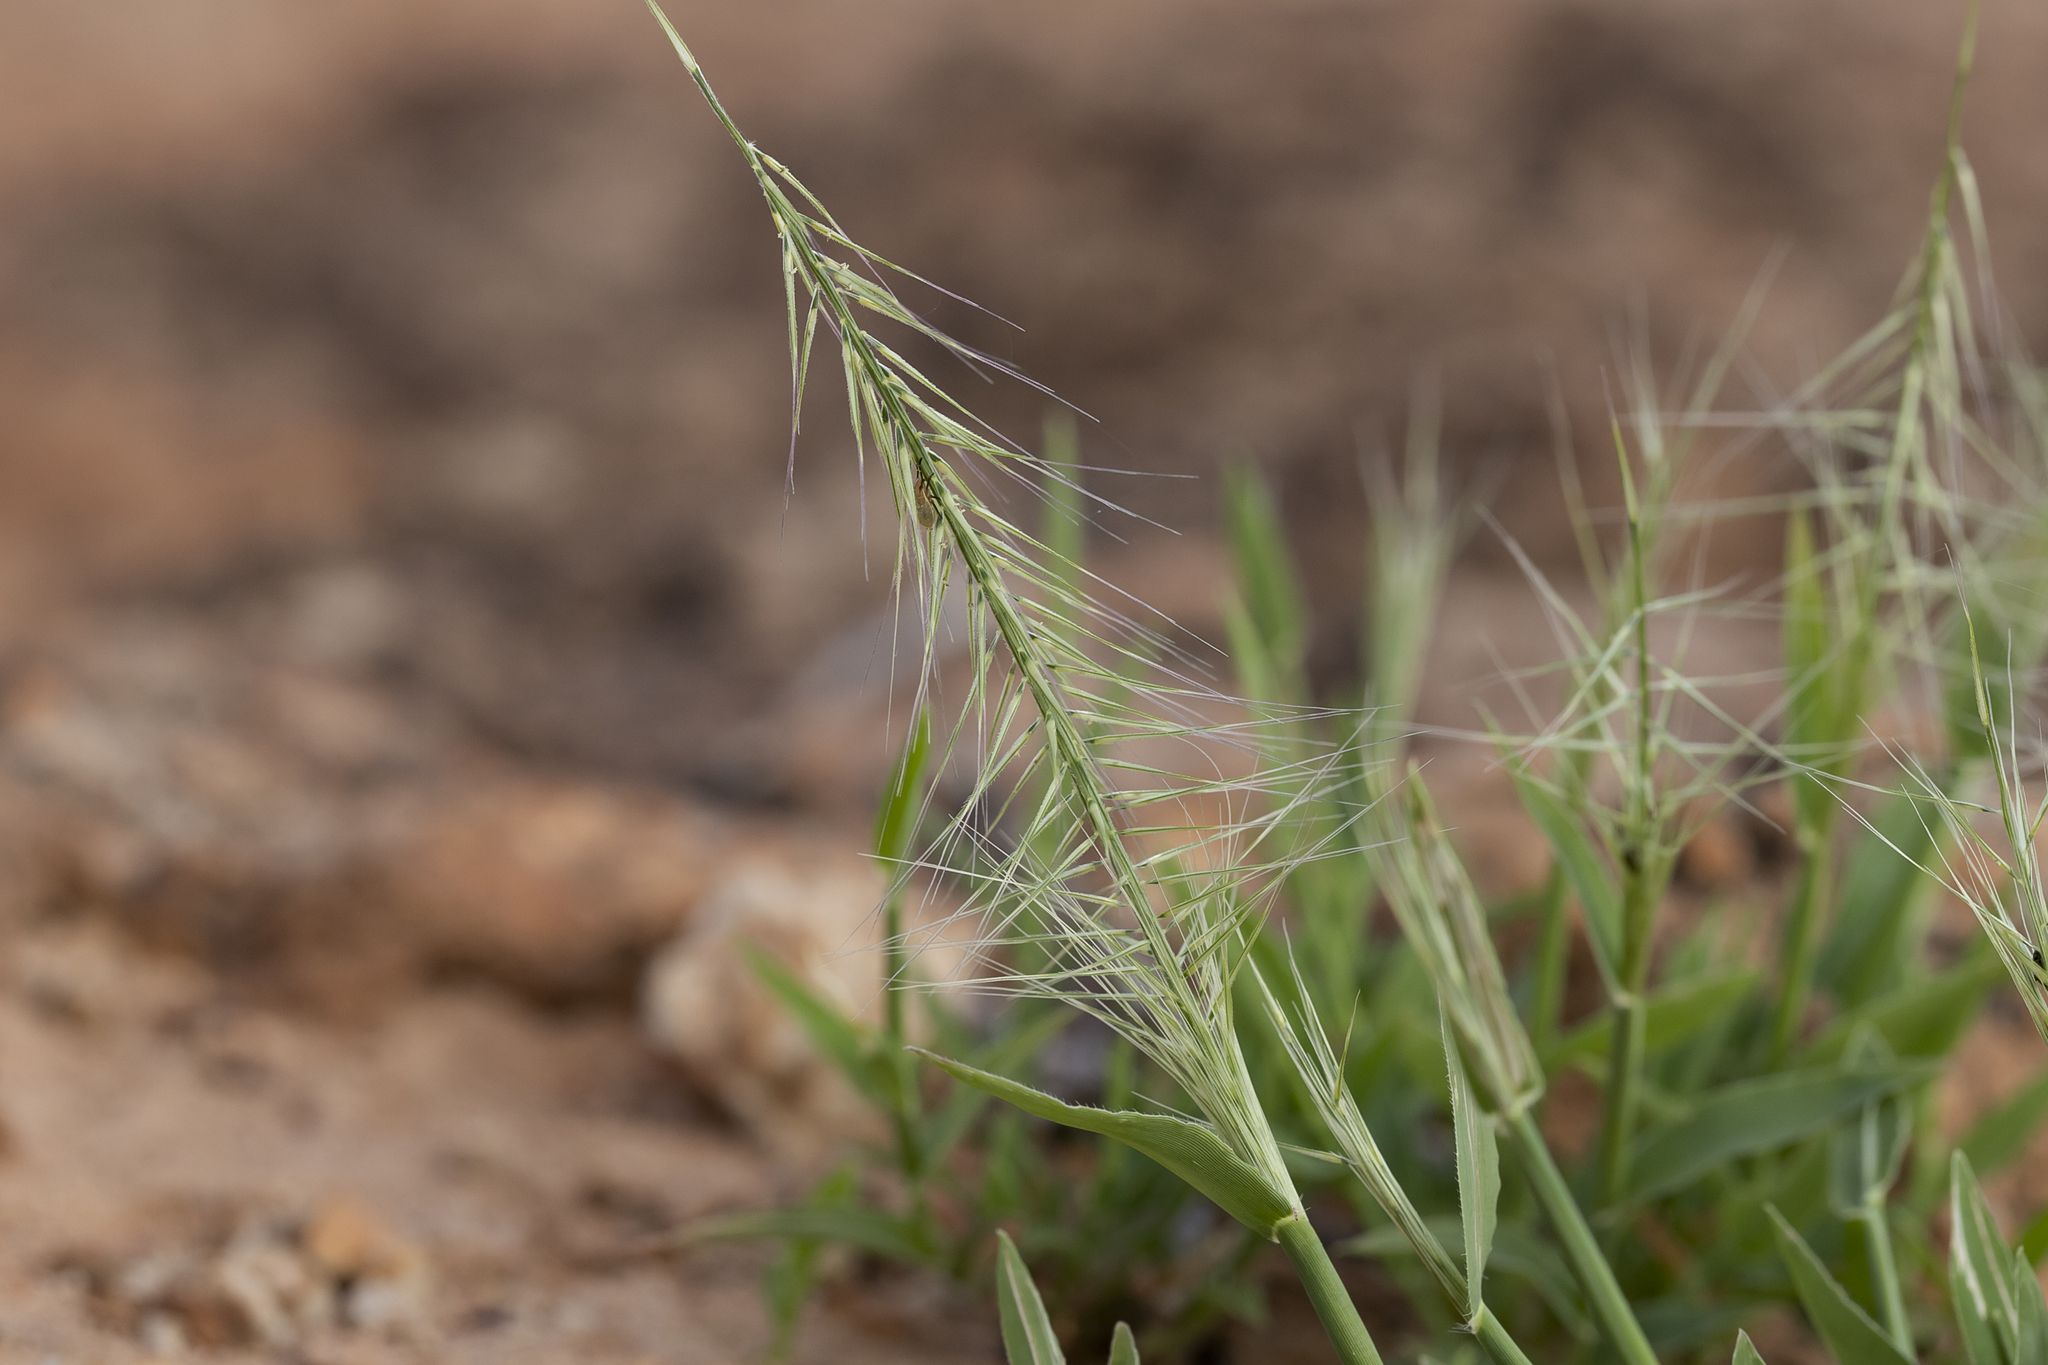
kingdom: Plantae
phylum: Tracheophyta
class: Liliopsida
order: Poales
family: Poaceae
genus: Perotis
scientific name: Perotis rara
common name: Comet grass
